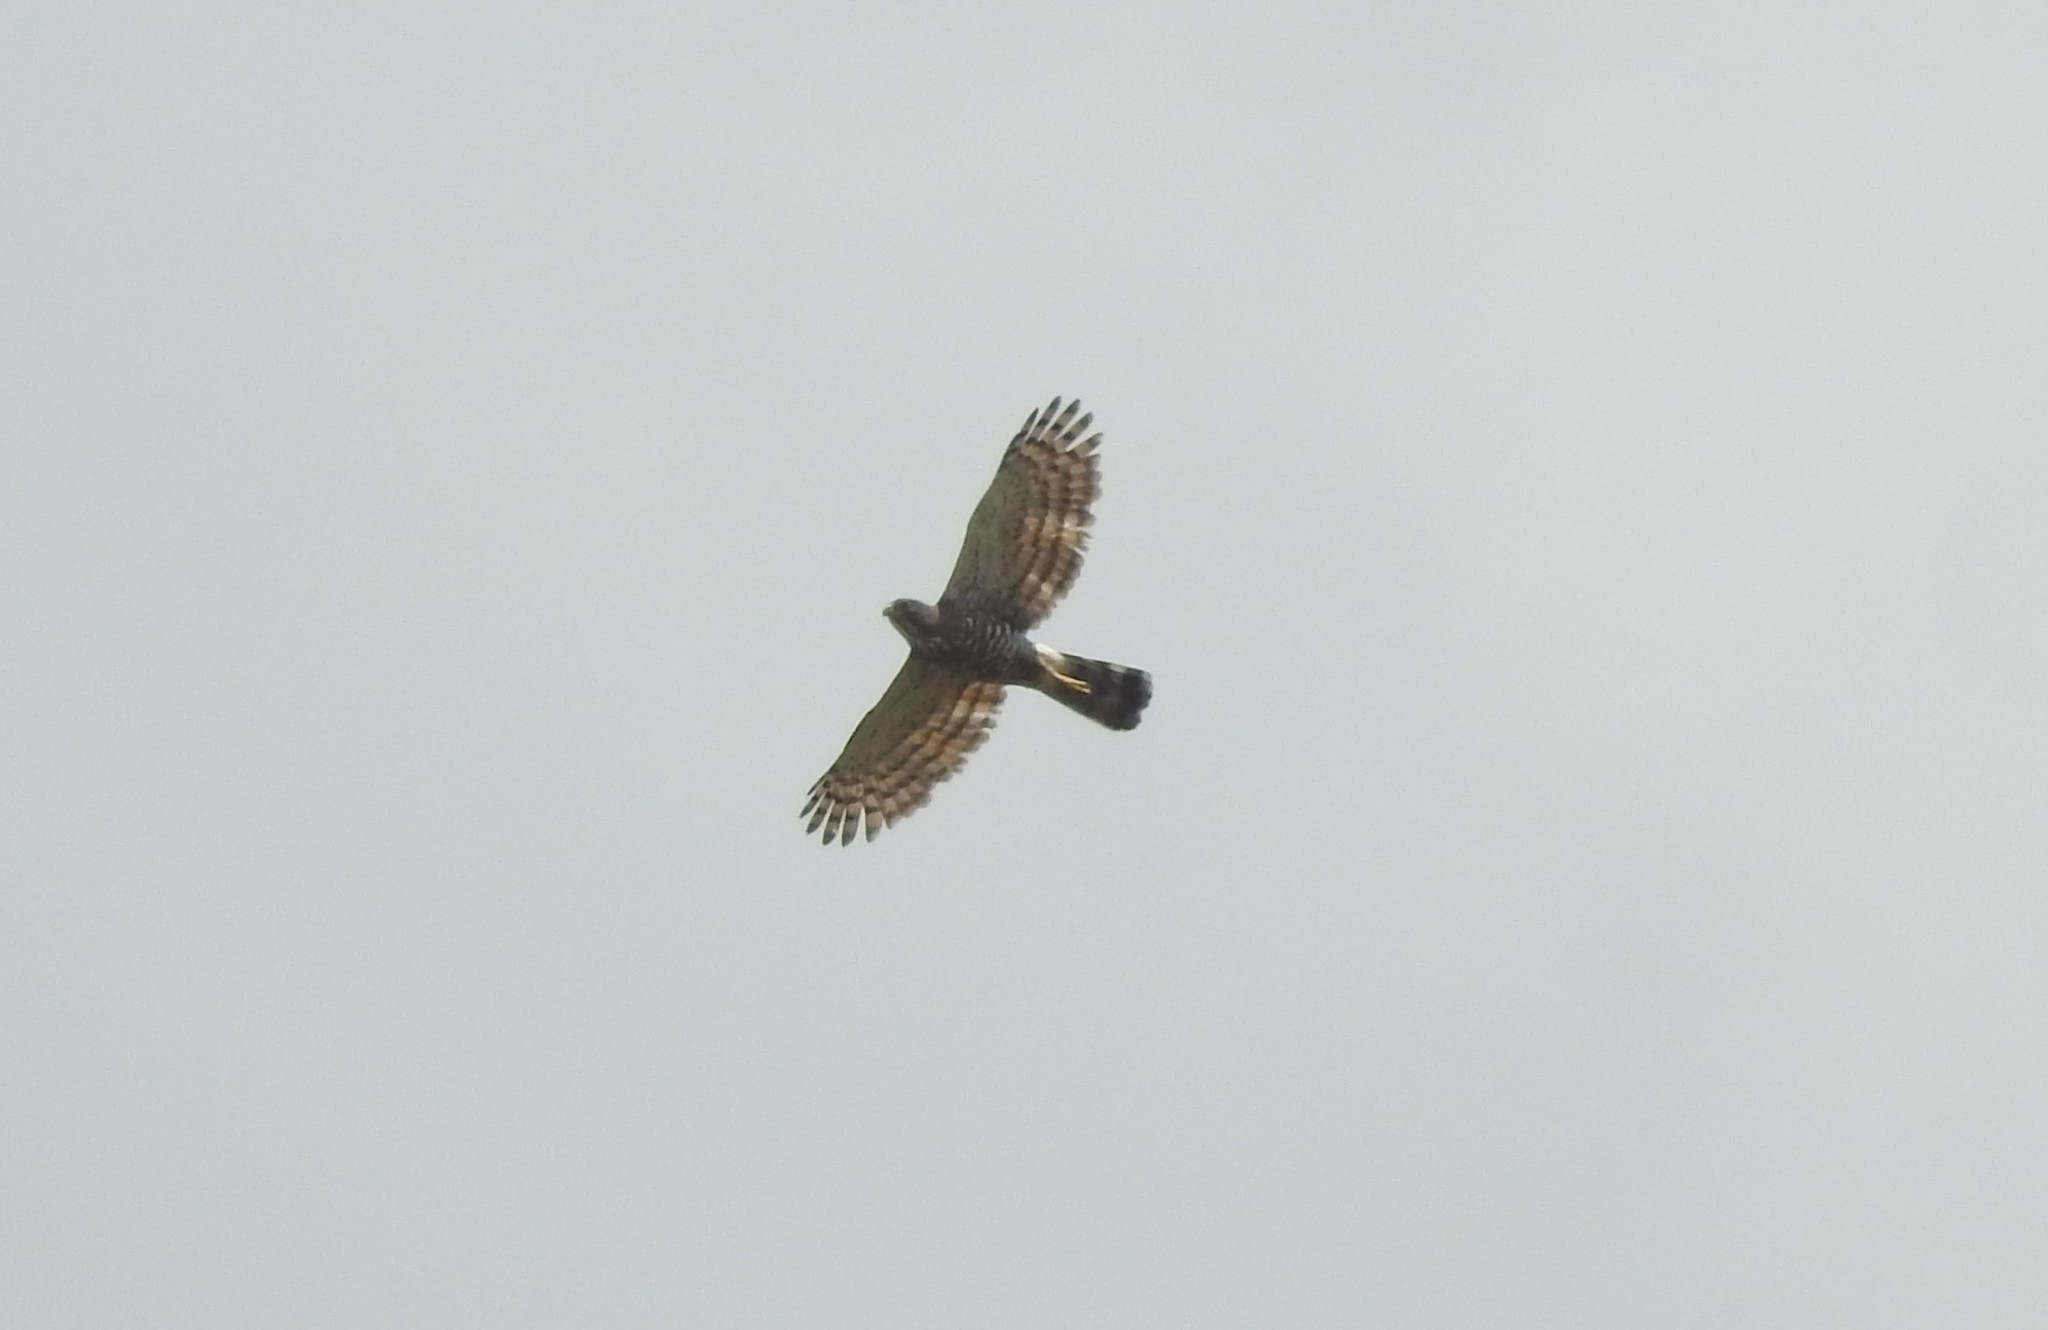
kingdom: Animalia
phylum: Chordata
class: Aves
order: Accipitriformes
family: Accipitridae
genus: Accipiter
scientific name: Accipiter badius
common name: Shikra
